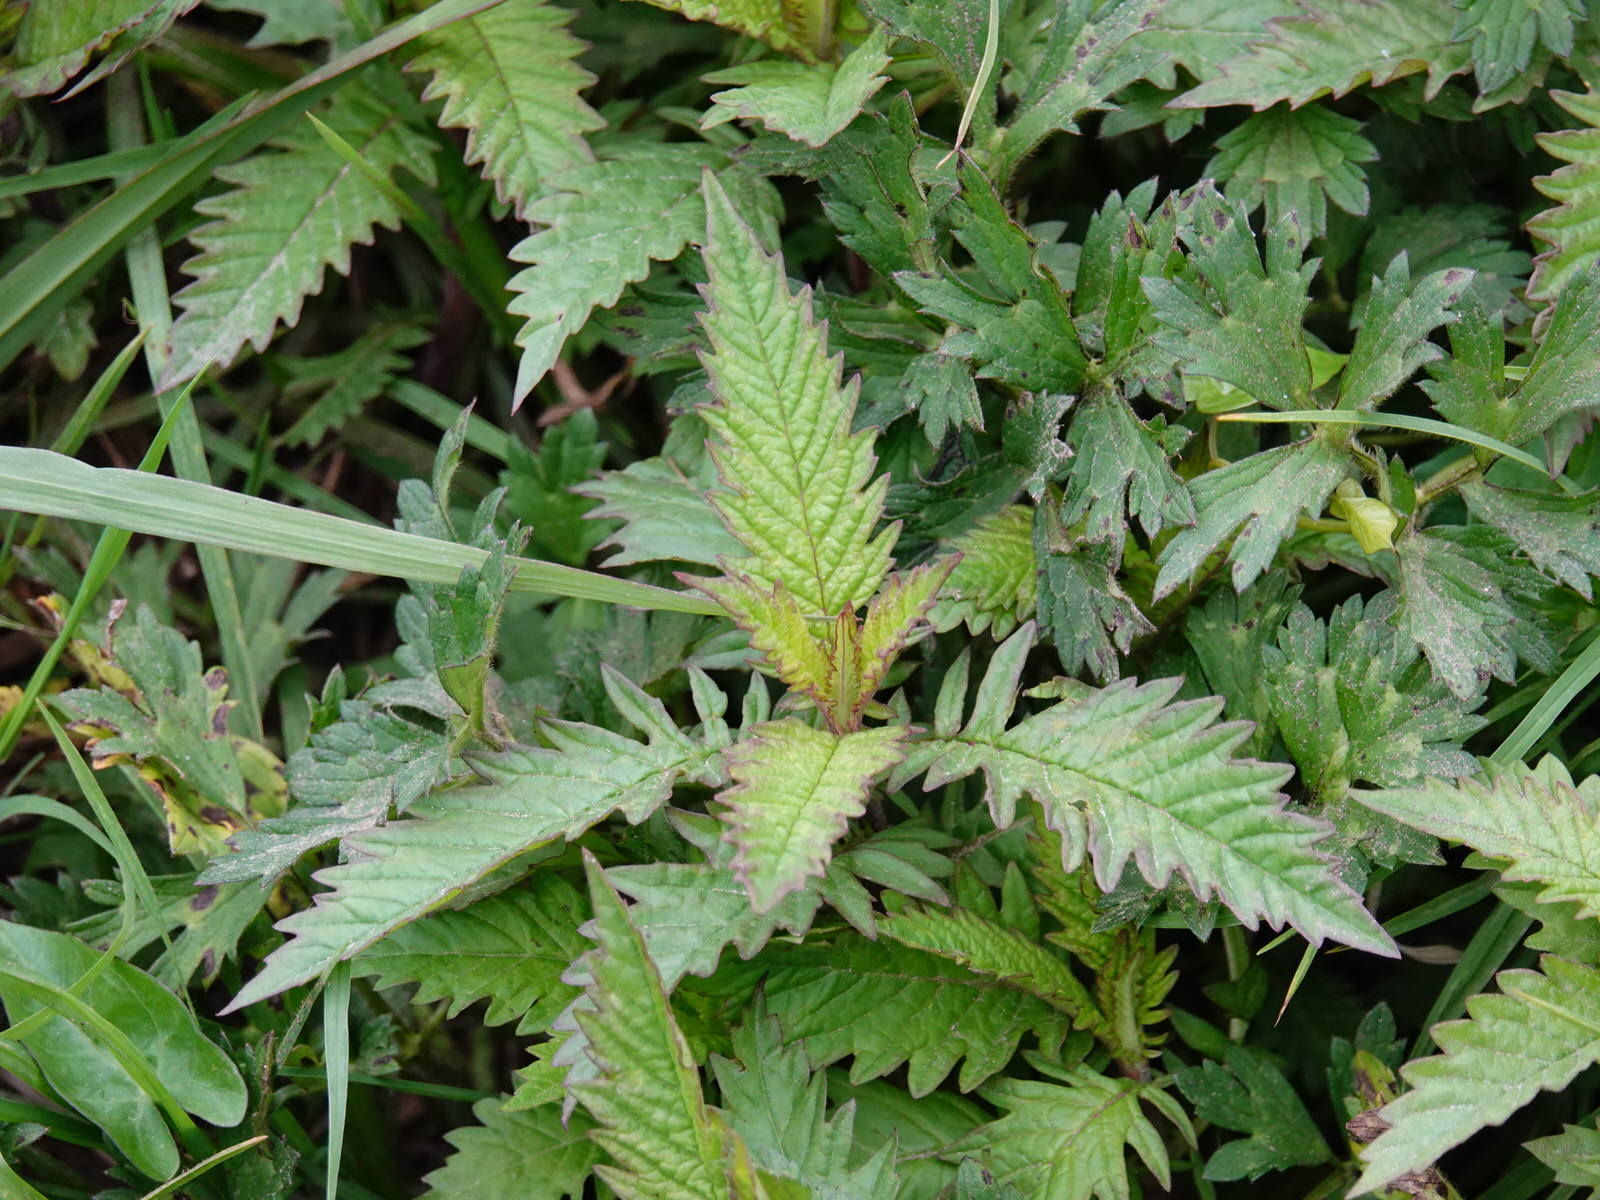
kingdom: Plantae
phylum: Tracheophyta
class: Magnoliopsida
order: Lamiales
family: Lamiaceae
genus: Lycopus
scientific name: Lycopus europaeus
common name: European bugleweed
